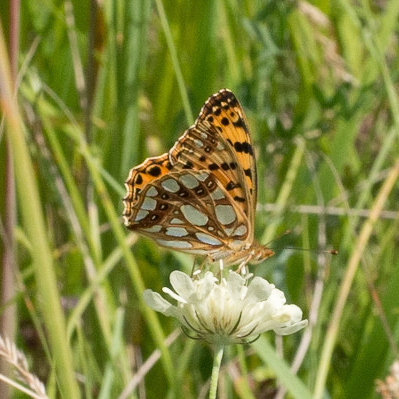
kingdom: Animalia
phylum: Arthropoda
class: Insecta
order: Lepidoptera
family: Nymphalidae
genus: Issoria
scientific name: Issoria lathonia
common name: Queen of spain fritillary
